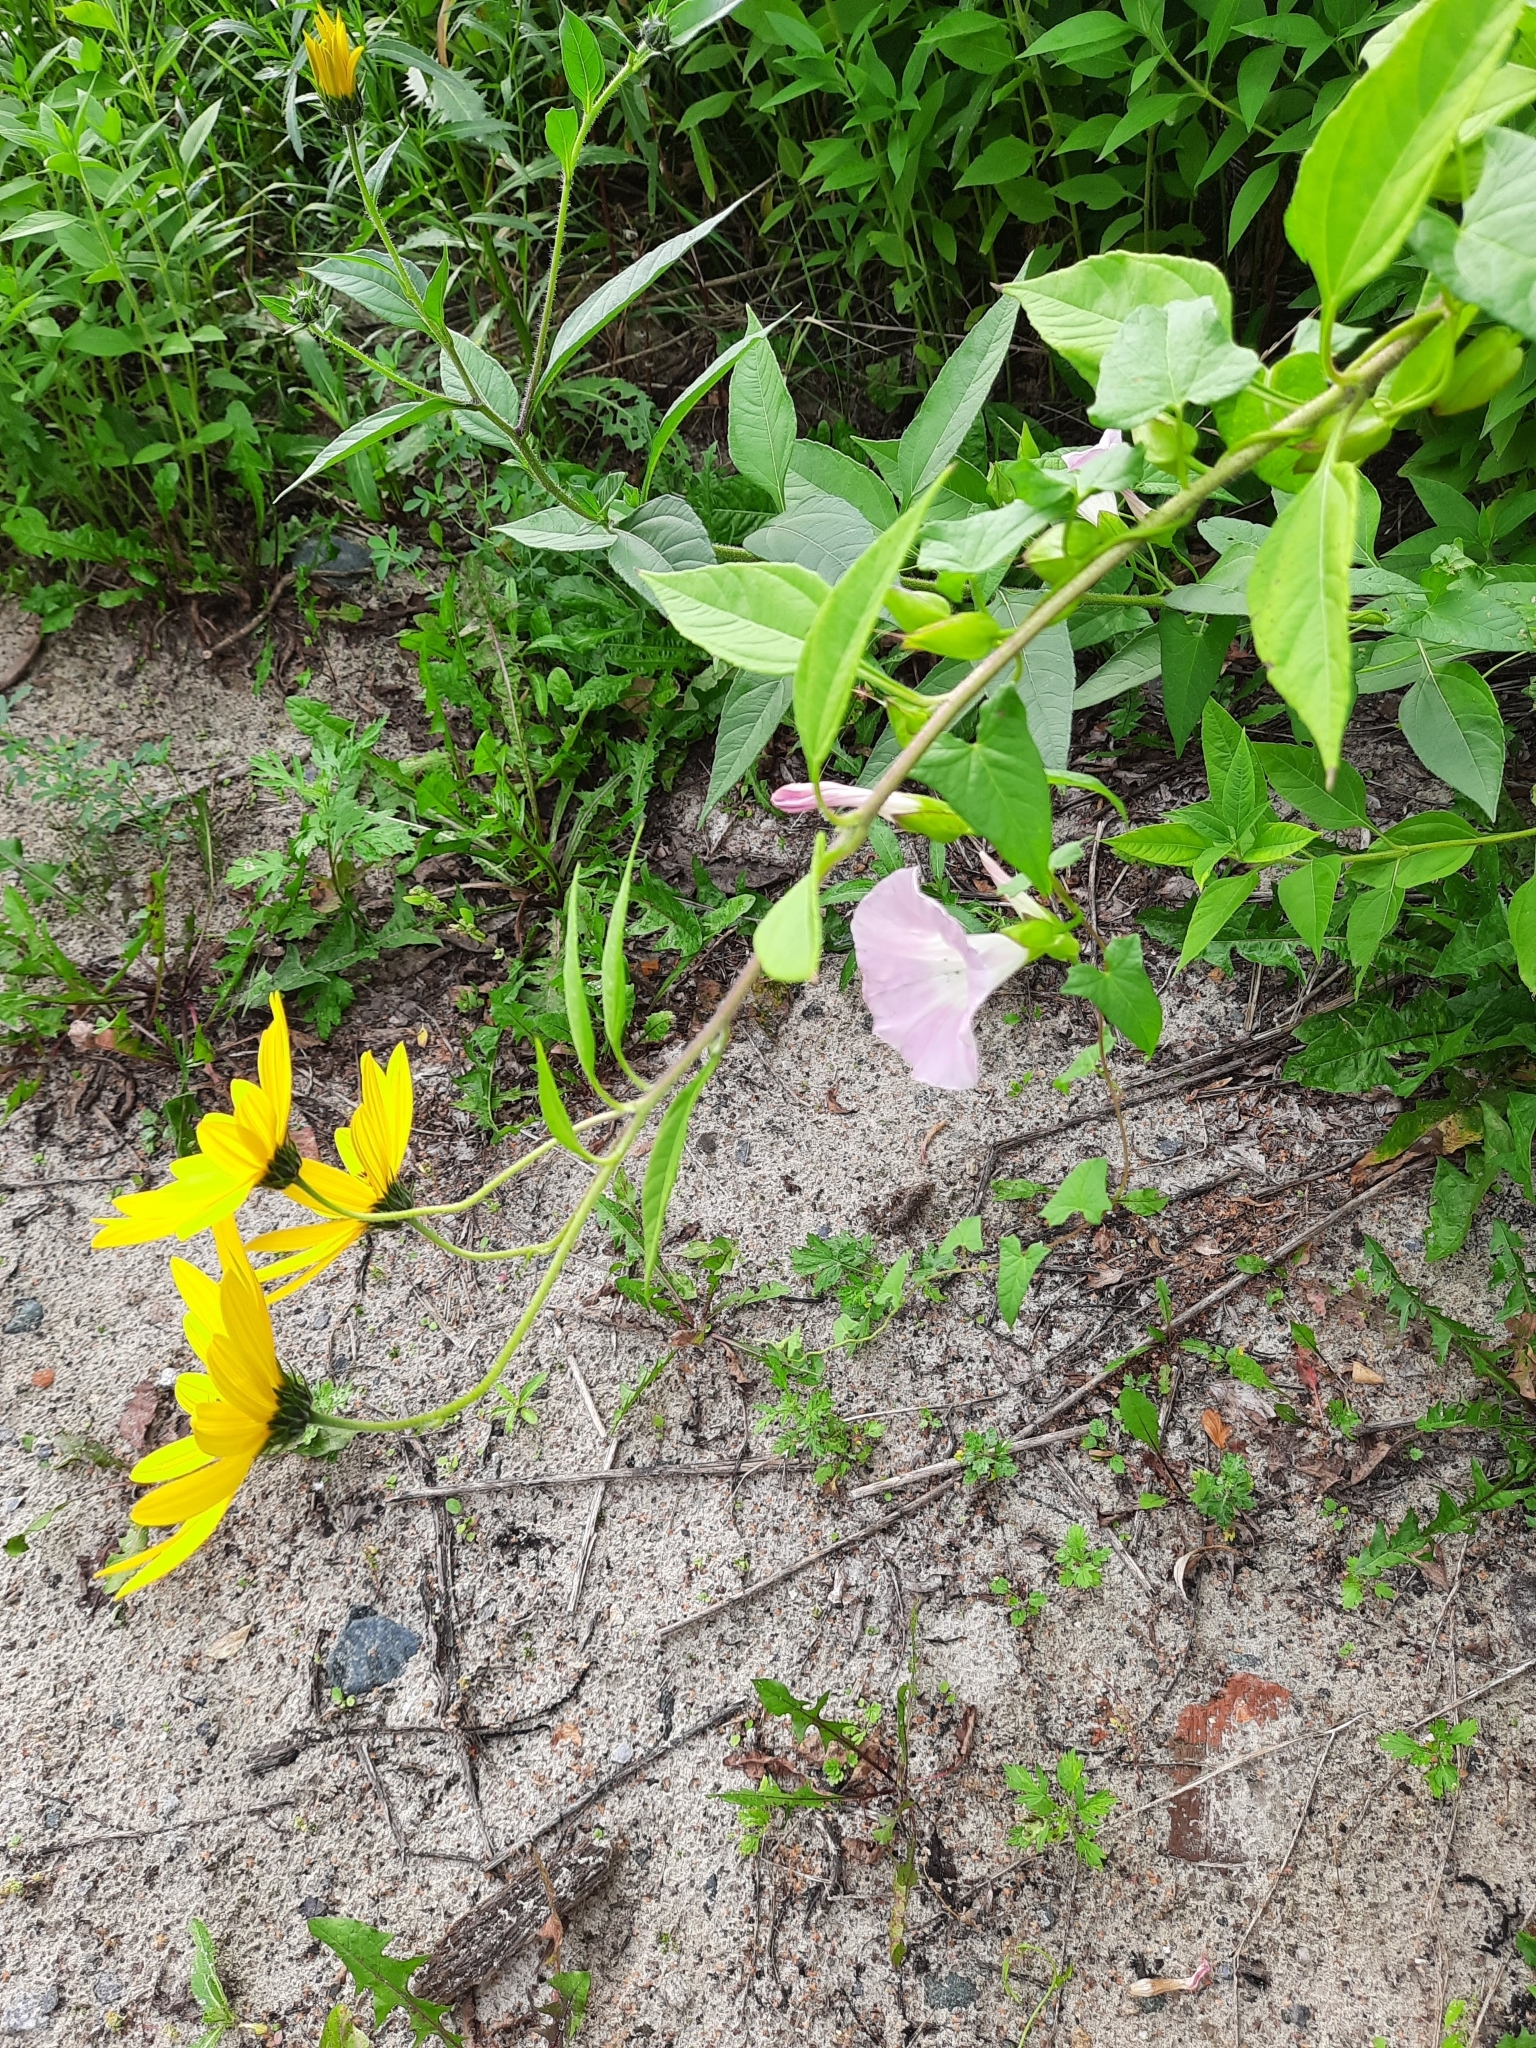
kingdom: Plantae
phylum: Tracheophyta
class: Magnoliopsida
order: Asterales
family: Asteraceae
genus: Helianthus
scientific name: Helianthus tuberosus
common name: Jerusalem artichoke
